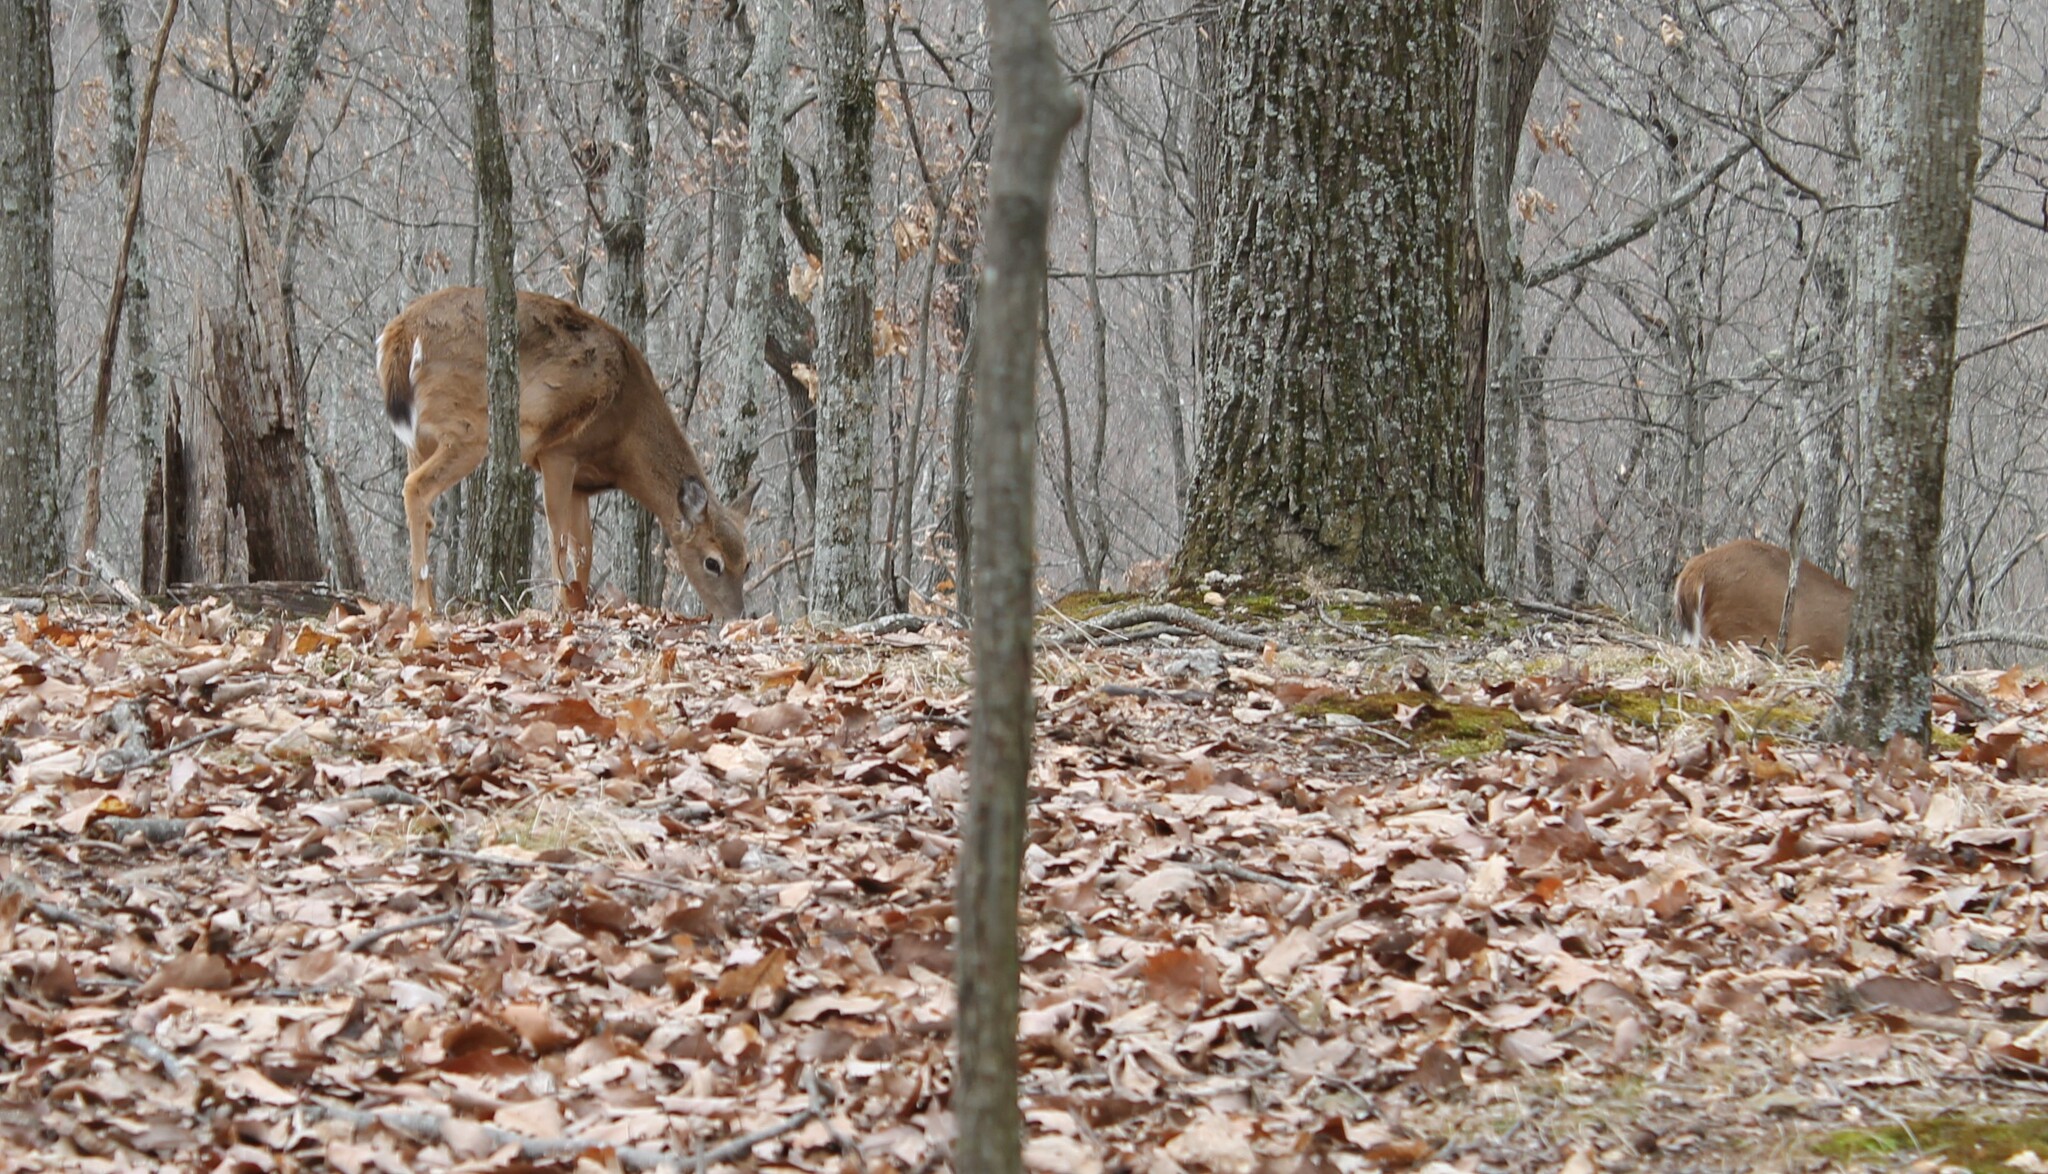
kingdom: Animalia
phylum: Chordata
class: Mammalia
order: Artiodactyla
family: Cervidae
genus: Odocoileus
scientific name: Odocoileus virginianus
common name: White-tailed deer
